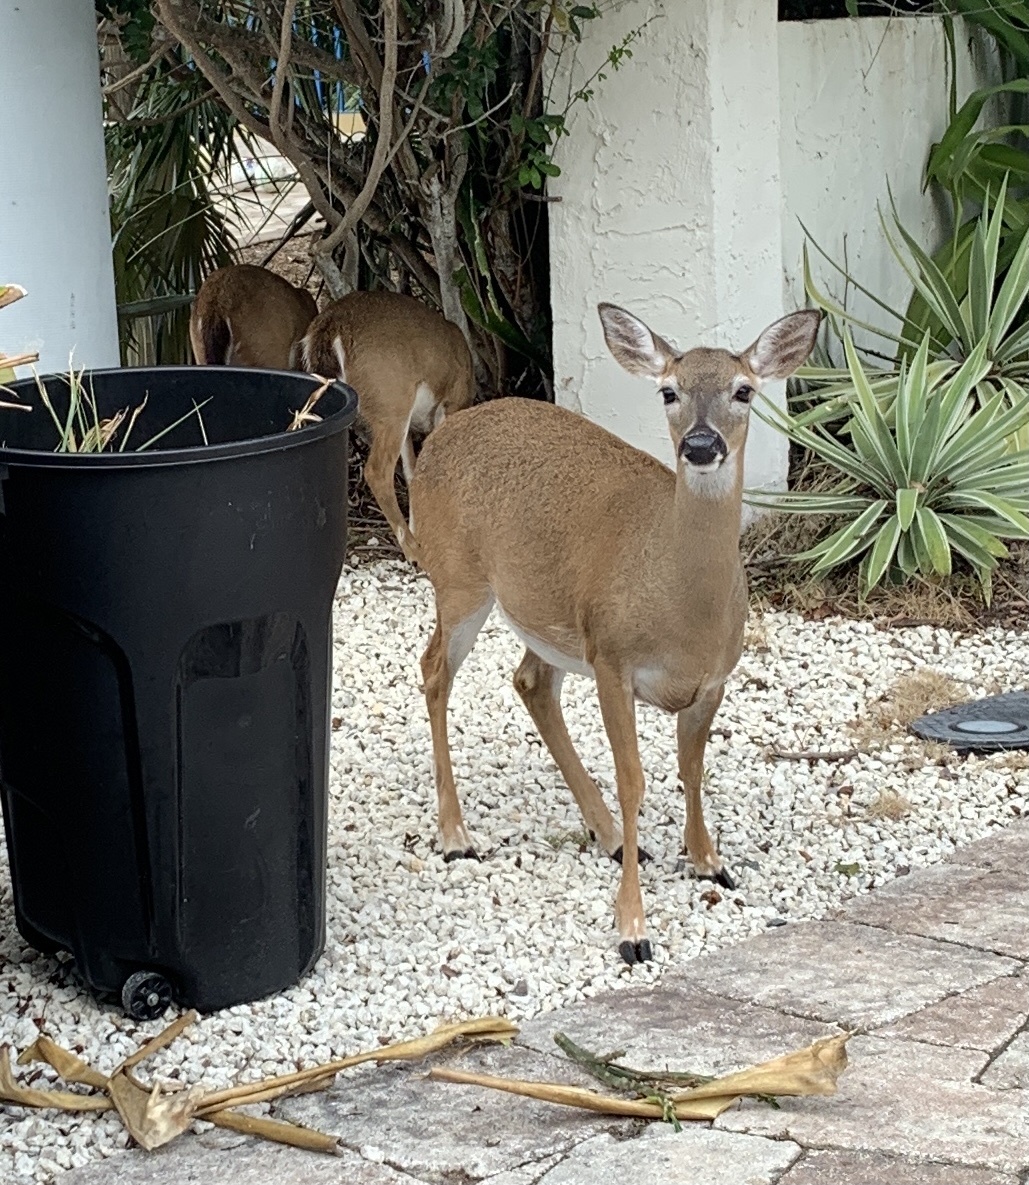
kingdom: Animalia
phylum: Chordata
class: Mammalia
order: Artiodactyla
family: Cervidae
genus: Odocoileus
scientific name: Odocoileus virginianus
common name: White-tailed deer
